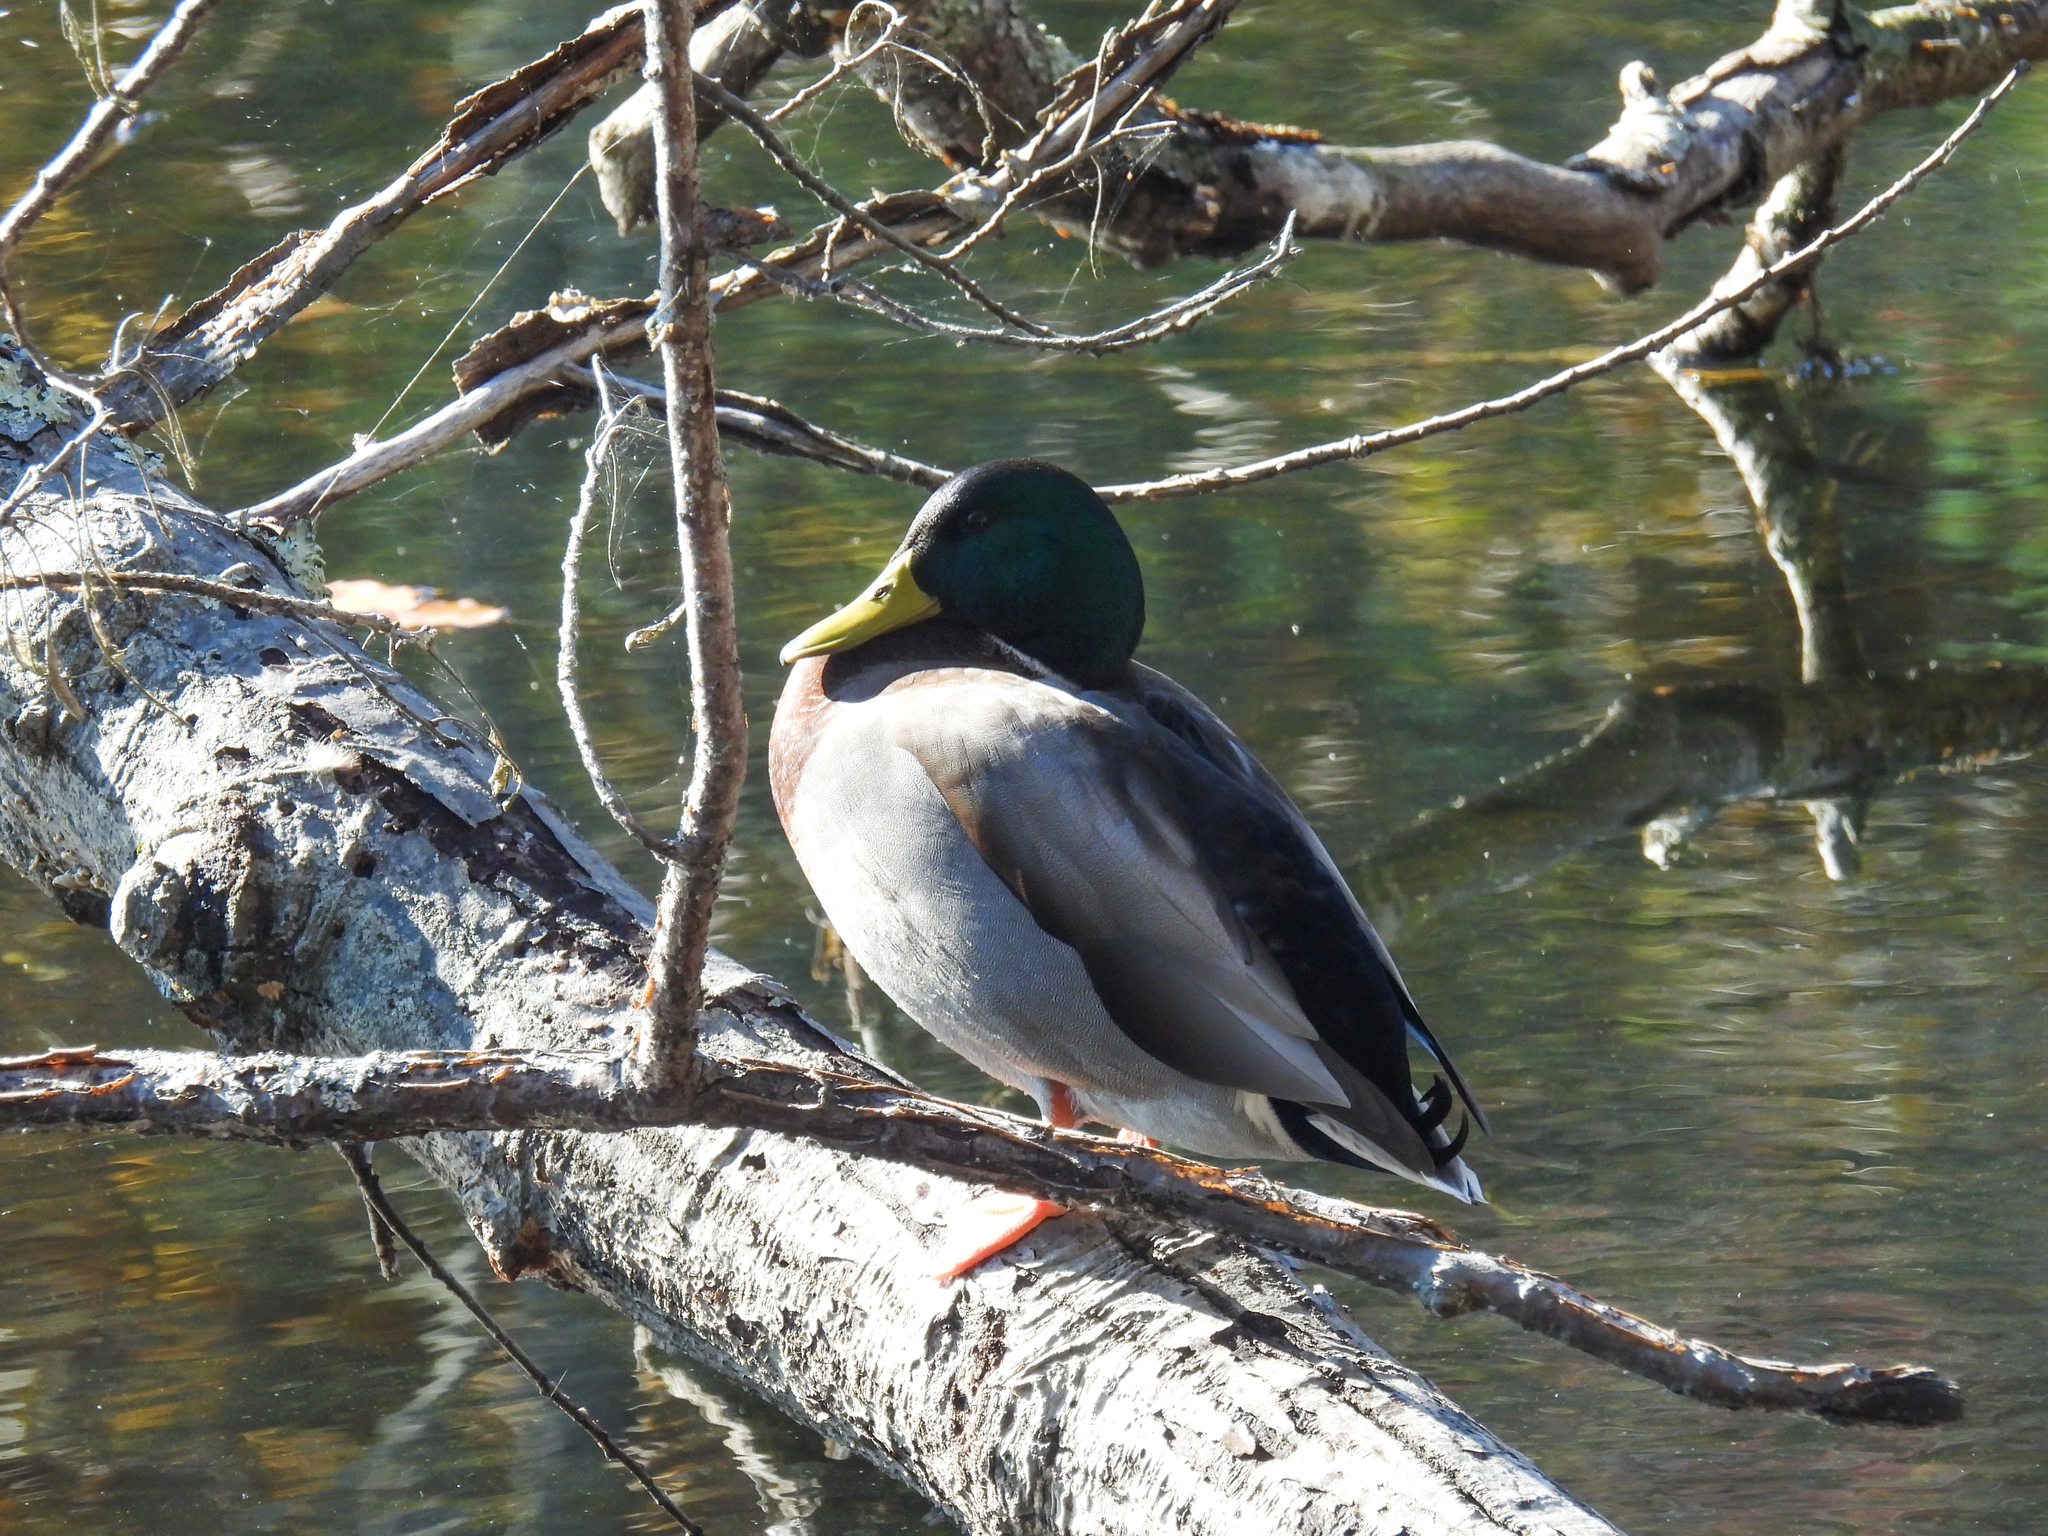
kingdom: Animalia
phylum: Chordata
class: Aves
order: Anseriformes
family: Anatidae
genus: Anas
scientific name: Anas platyrhynchos
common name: Mallard
